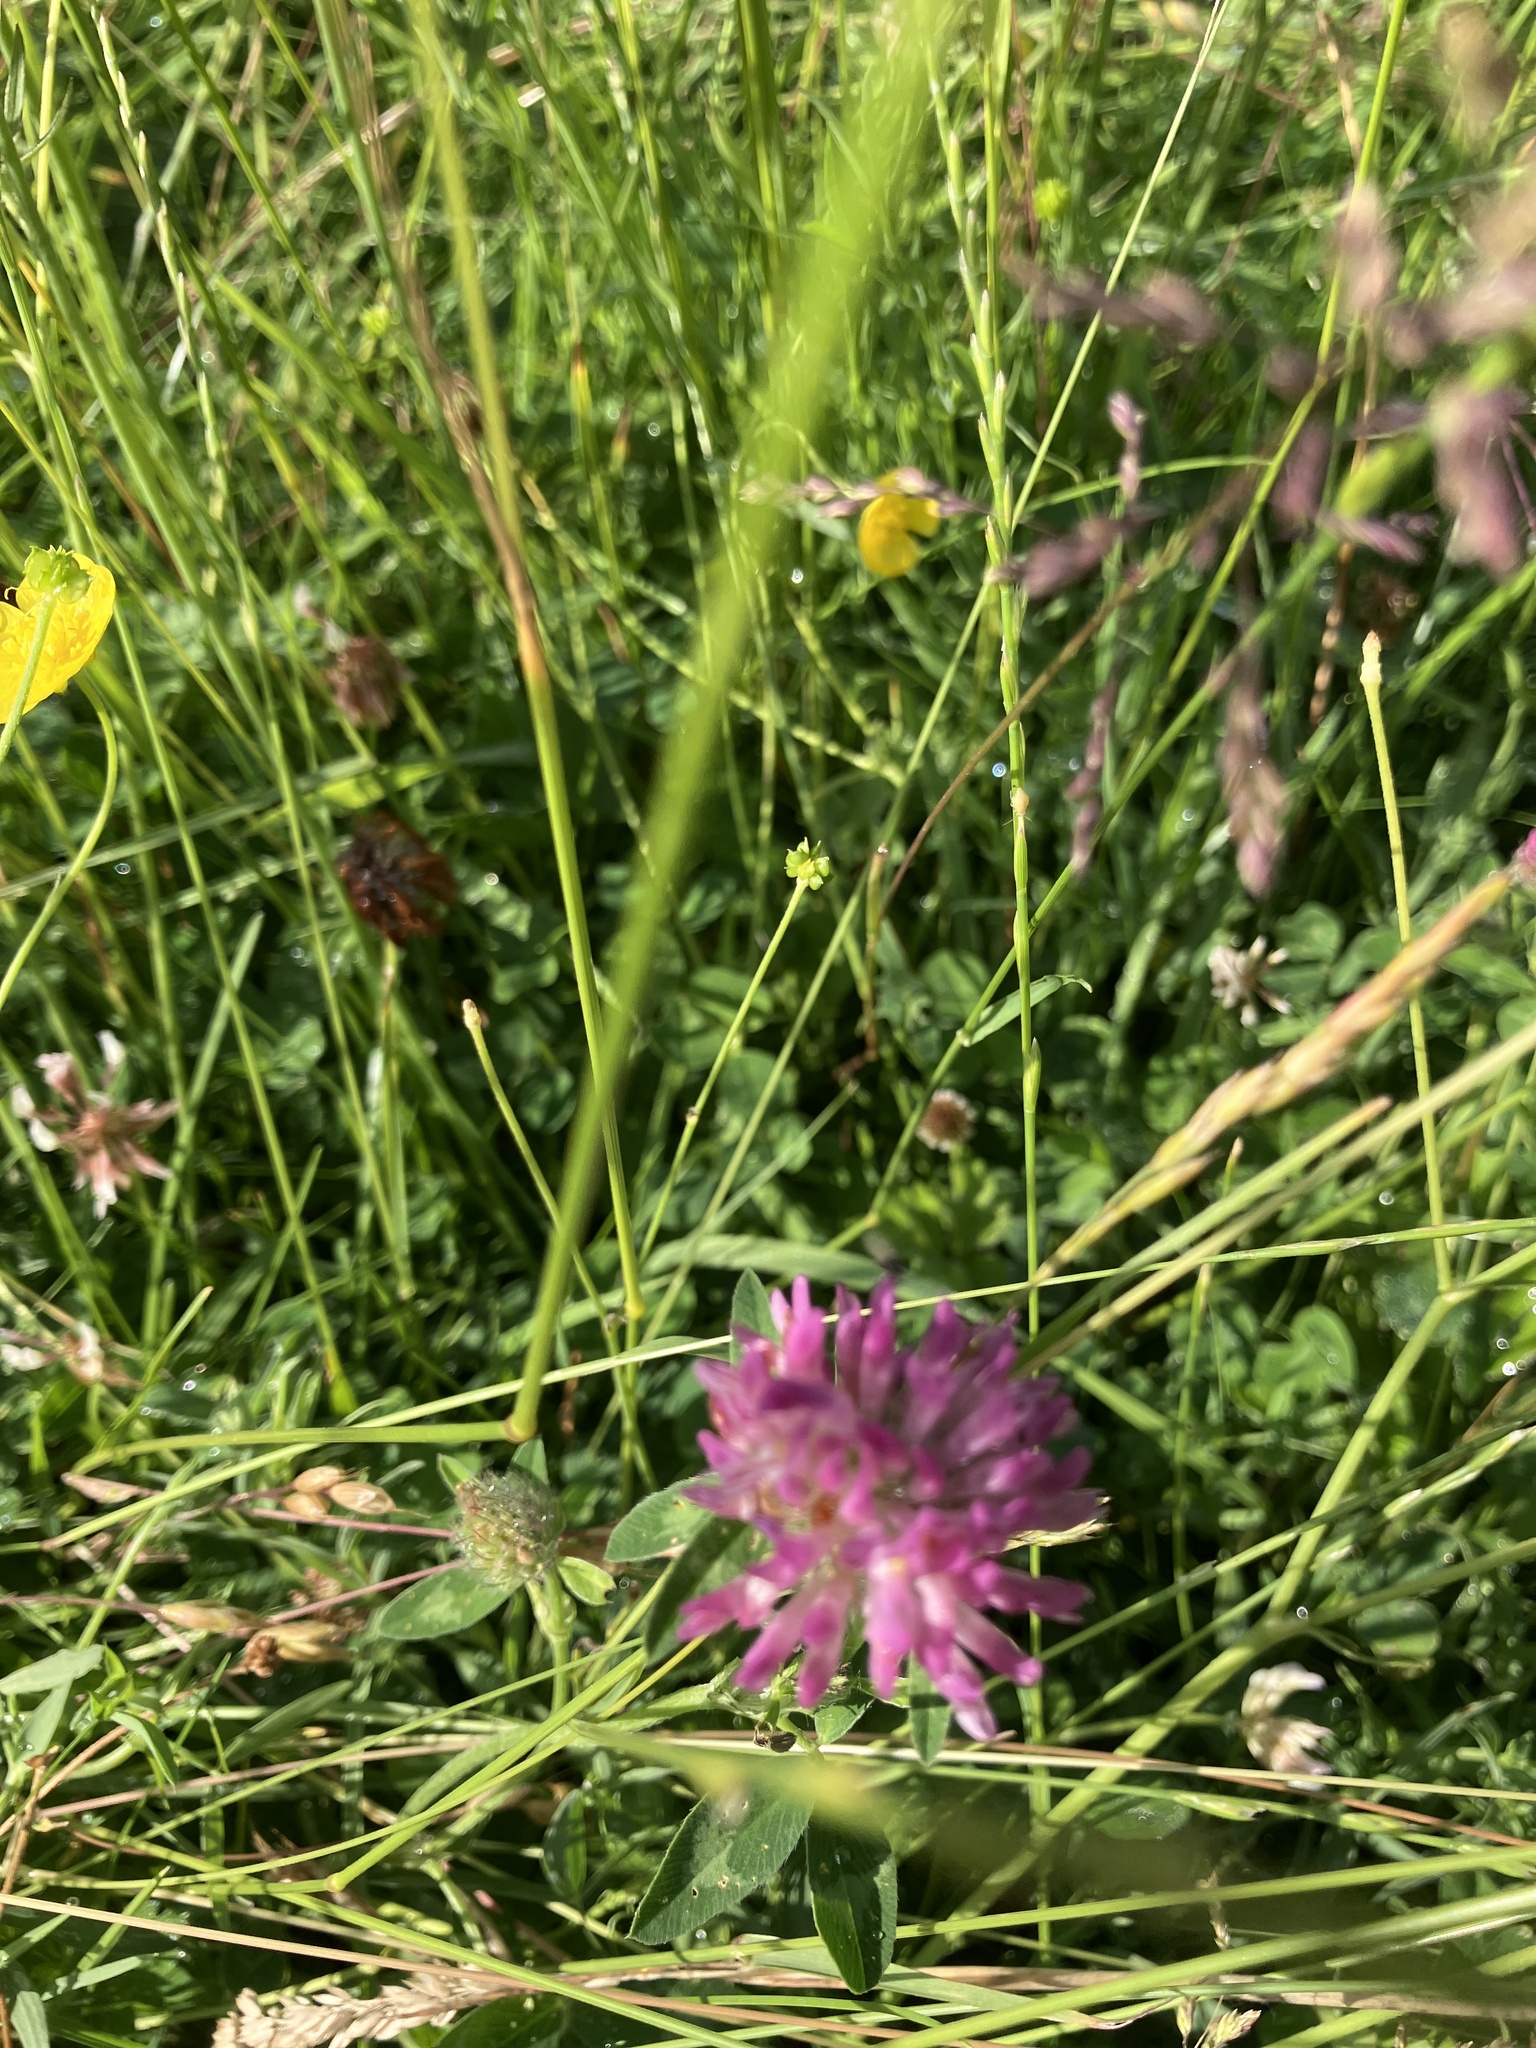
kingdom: Plantae
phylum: Tracheophyta
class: Magnoliopsida
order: Fabales
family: Fabaceae
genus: Trifolium
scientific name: Trifolium pratense
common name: Red clover
